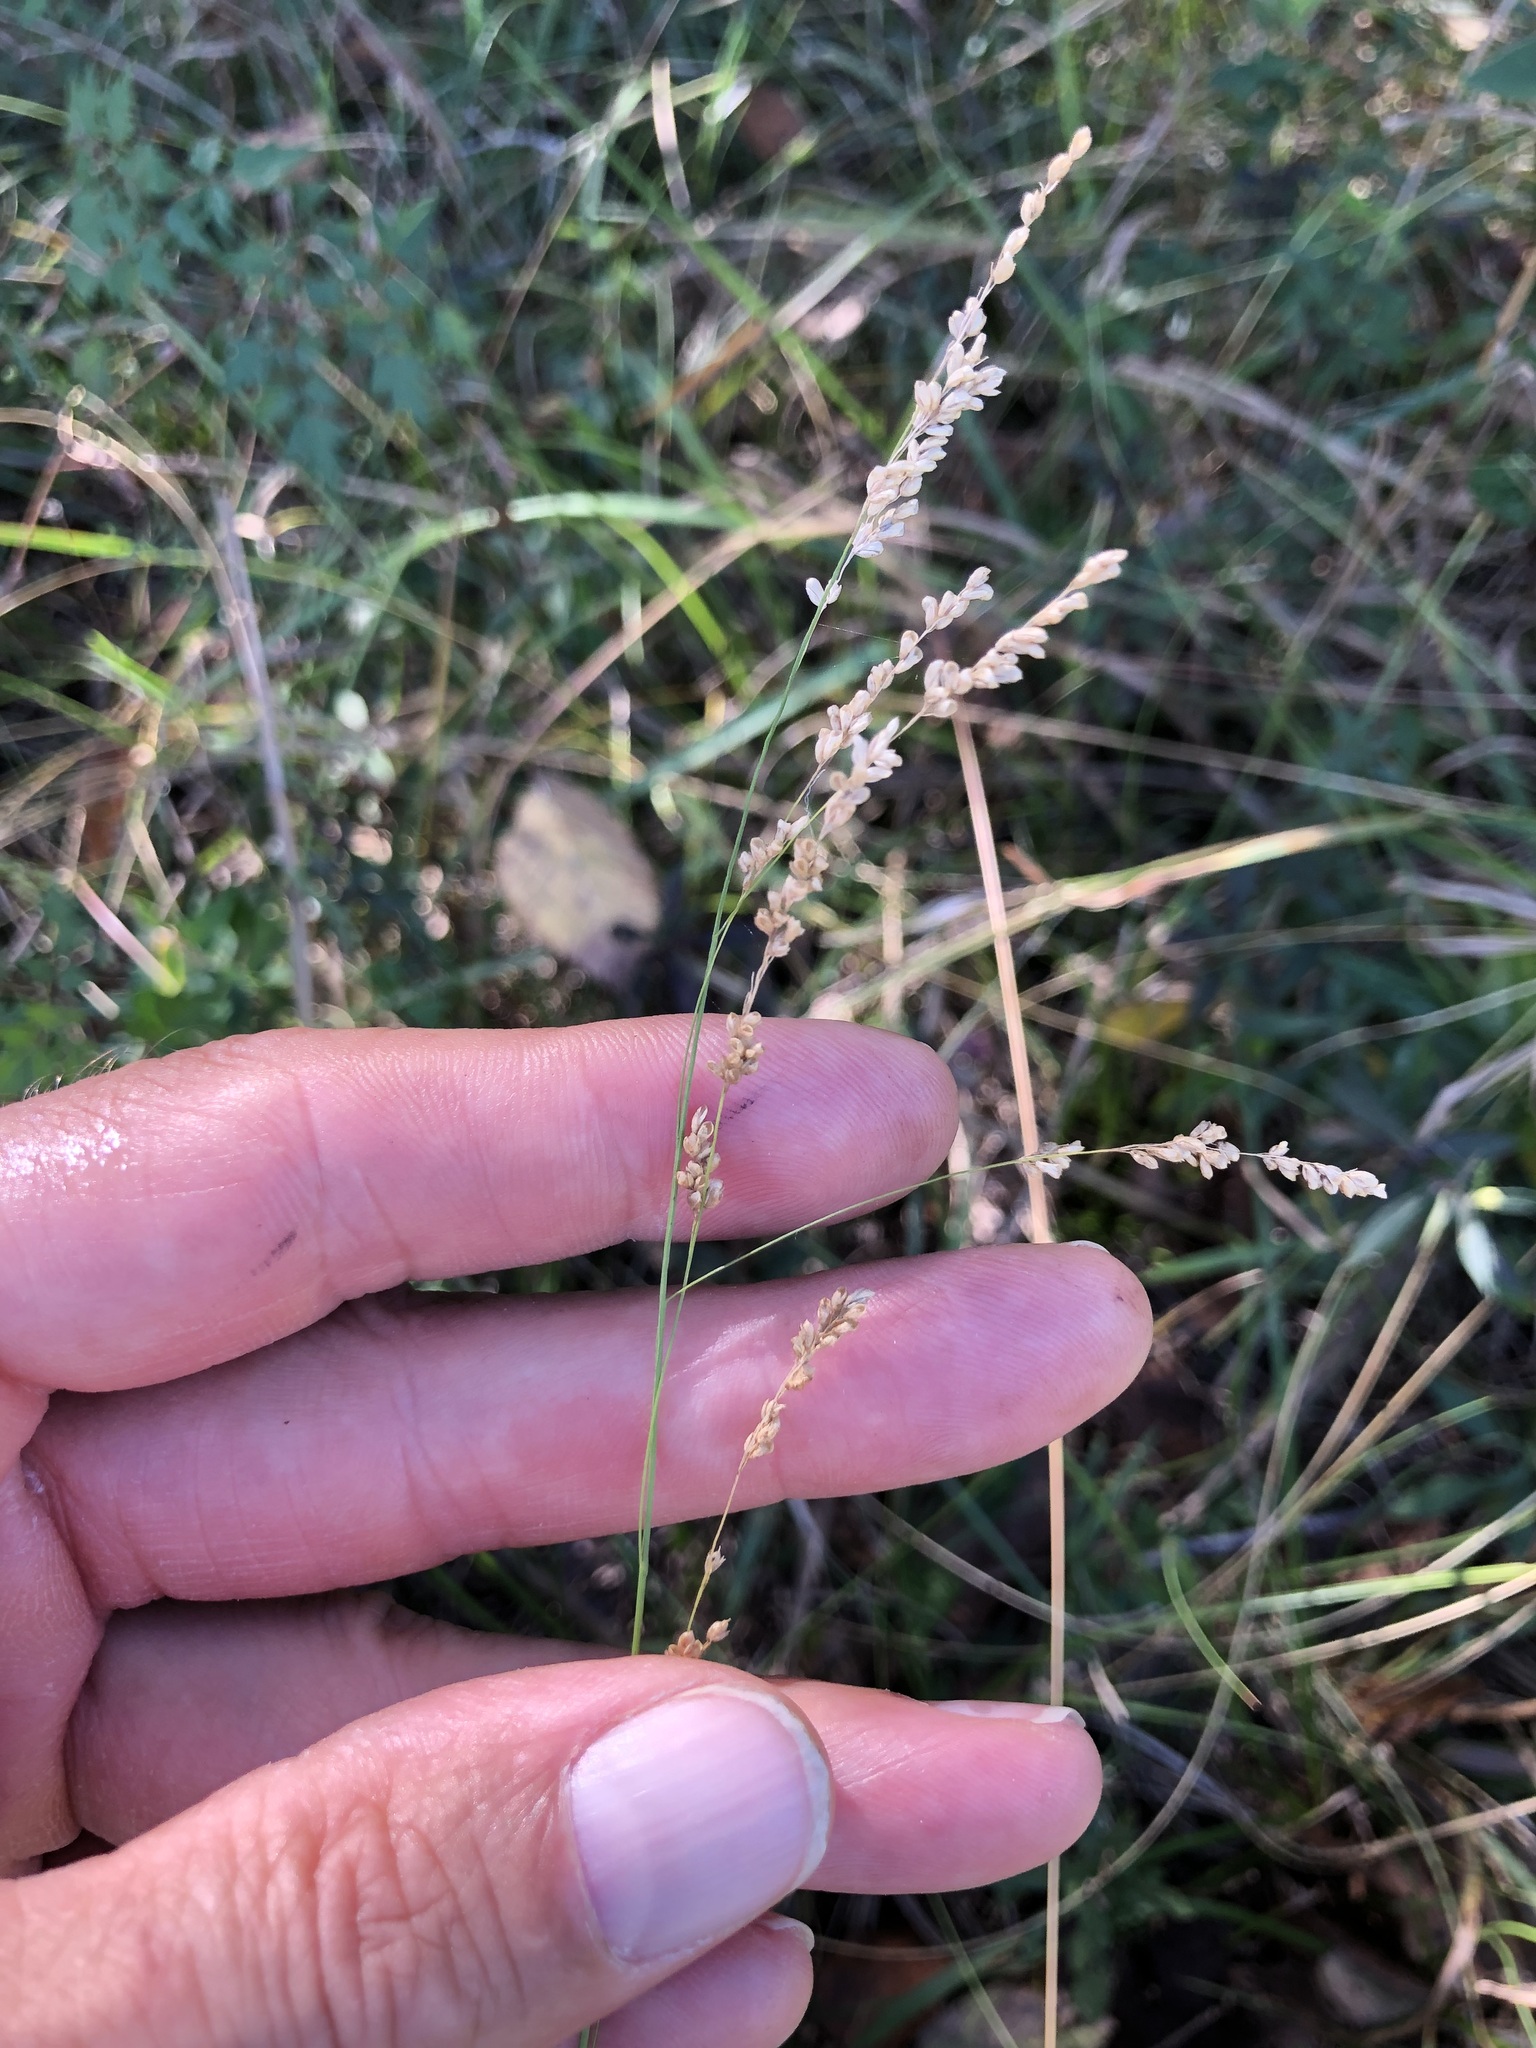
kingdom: Plantae
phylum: Tracheophyta
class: Liliopsida
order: Poales
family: Poaceae
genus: Steinchisma
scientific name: Steinchisma hians
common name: Gaping panic grass
